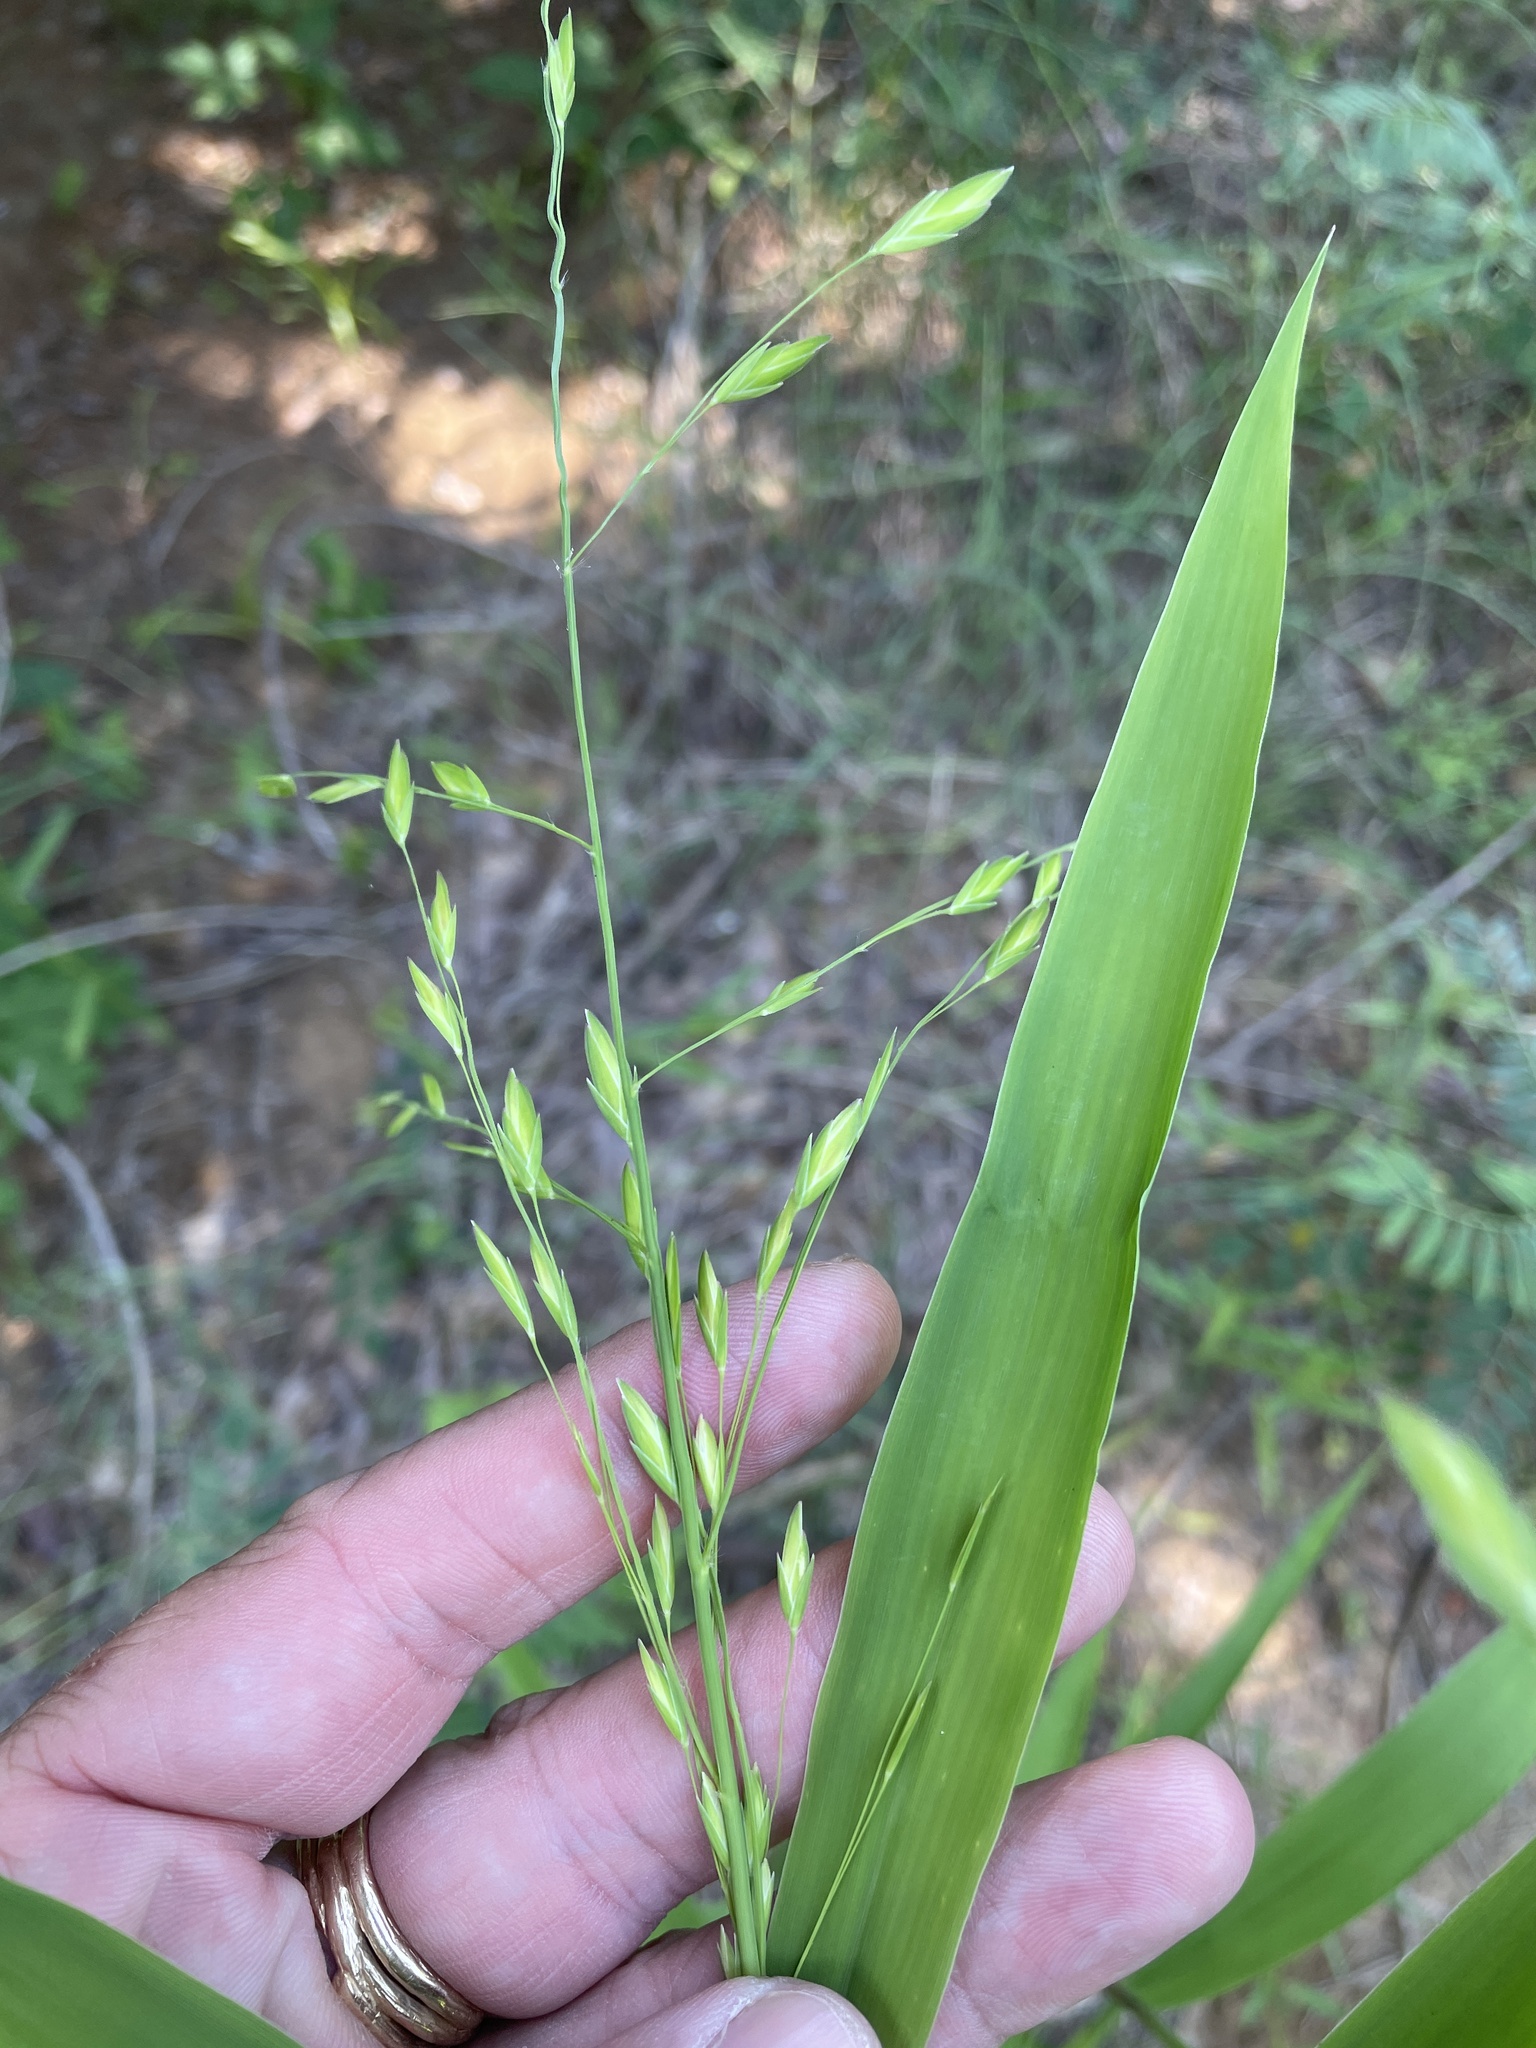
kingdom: Plantae
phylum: Tracheophyta
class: Liliopsida
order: Poales
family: Poaceae
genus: Chasmanthium
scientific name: Chasmanthium latifolium
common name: Broad-leaved chasmanthium
